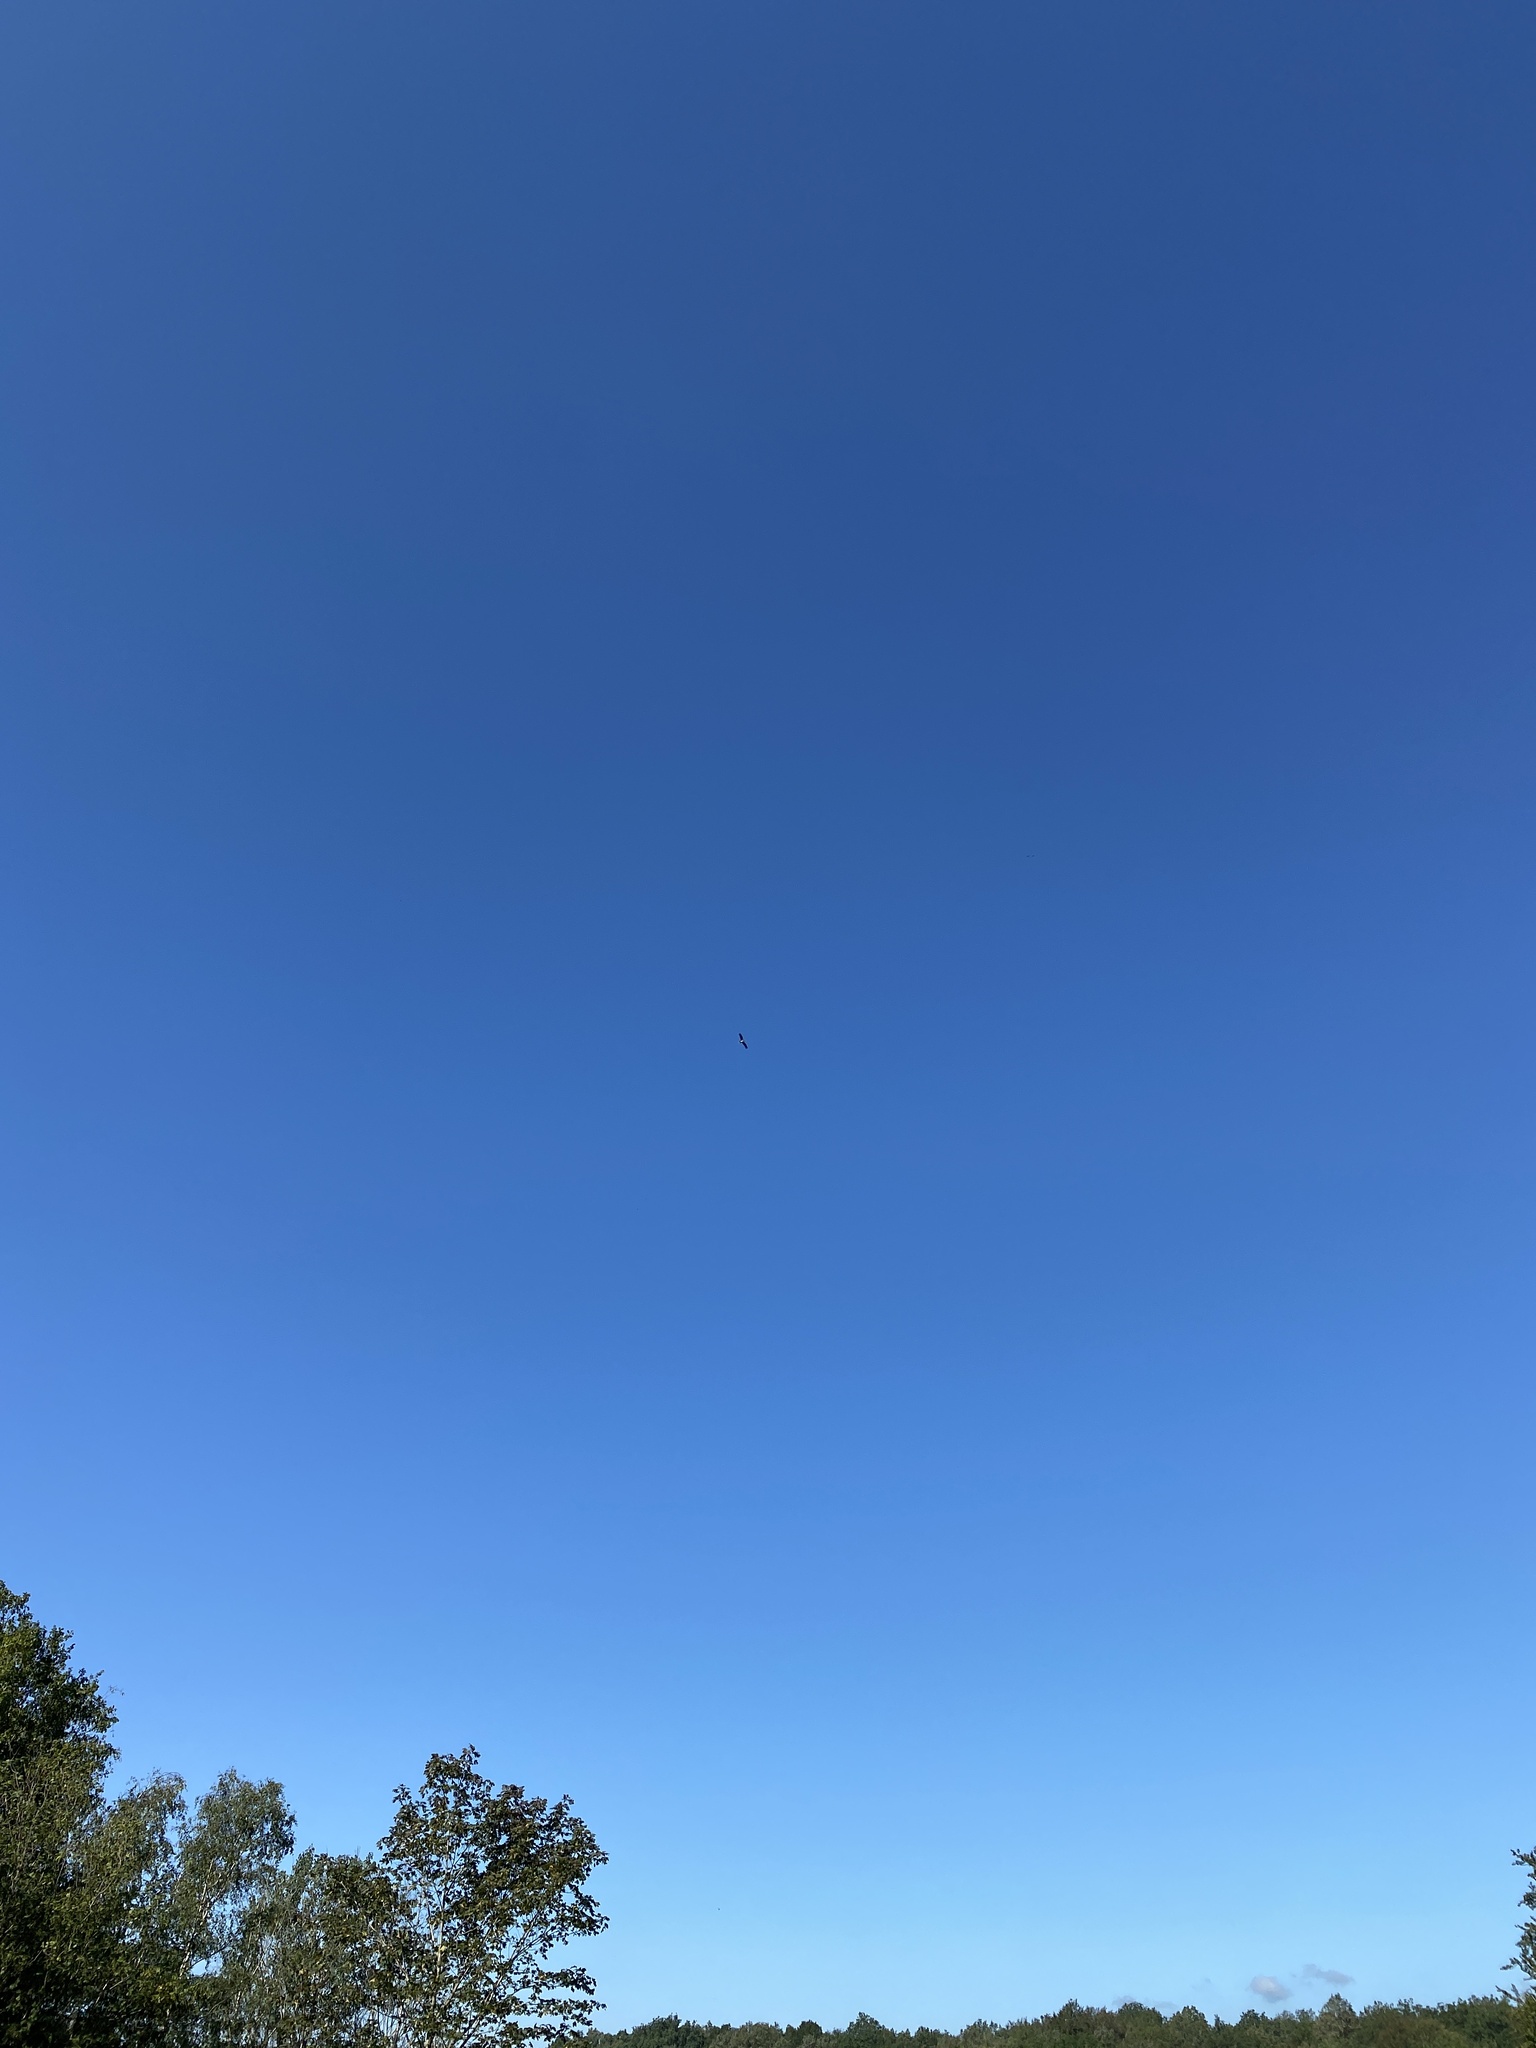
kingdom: Animalia
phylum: Chordata
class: Aves
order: Ciconiiformes
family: Ciconiidae
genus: Ciconia
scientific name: Ciconia nigra
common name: Black stork
